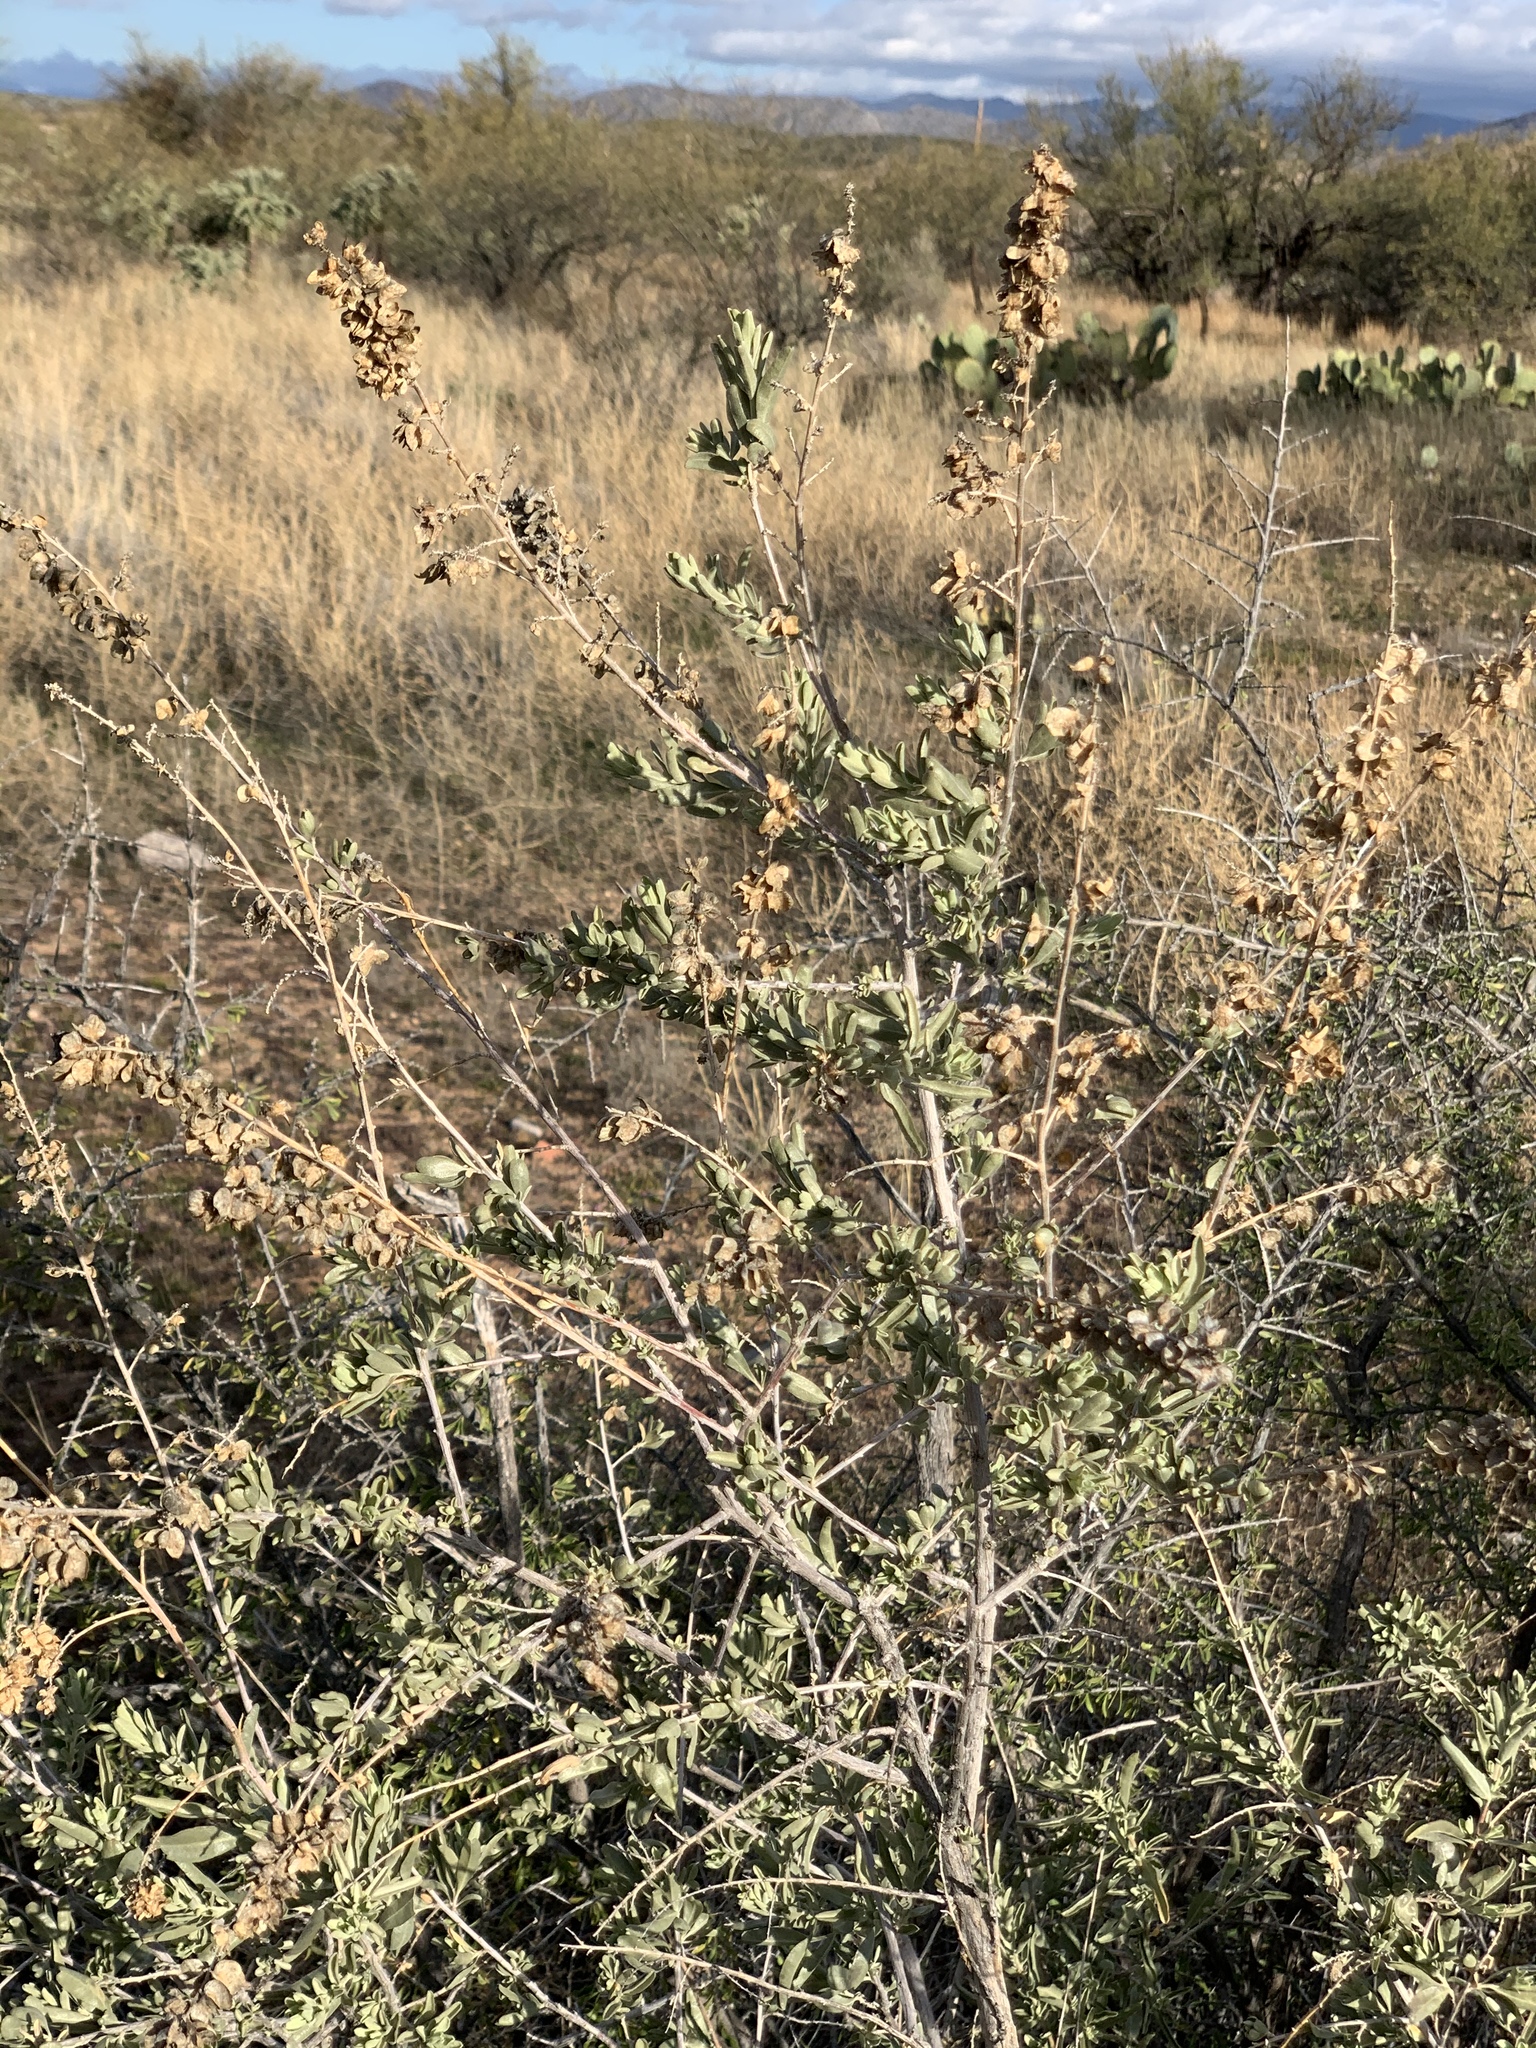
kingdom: Plantae
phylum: Tracheophyta
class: Magnoliopsida
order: Caryophyllales
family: Amaranthaceae
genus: Atriplex
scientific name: Atriplex canescens
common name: Four-wing saltbush
